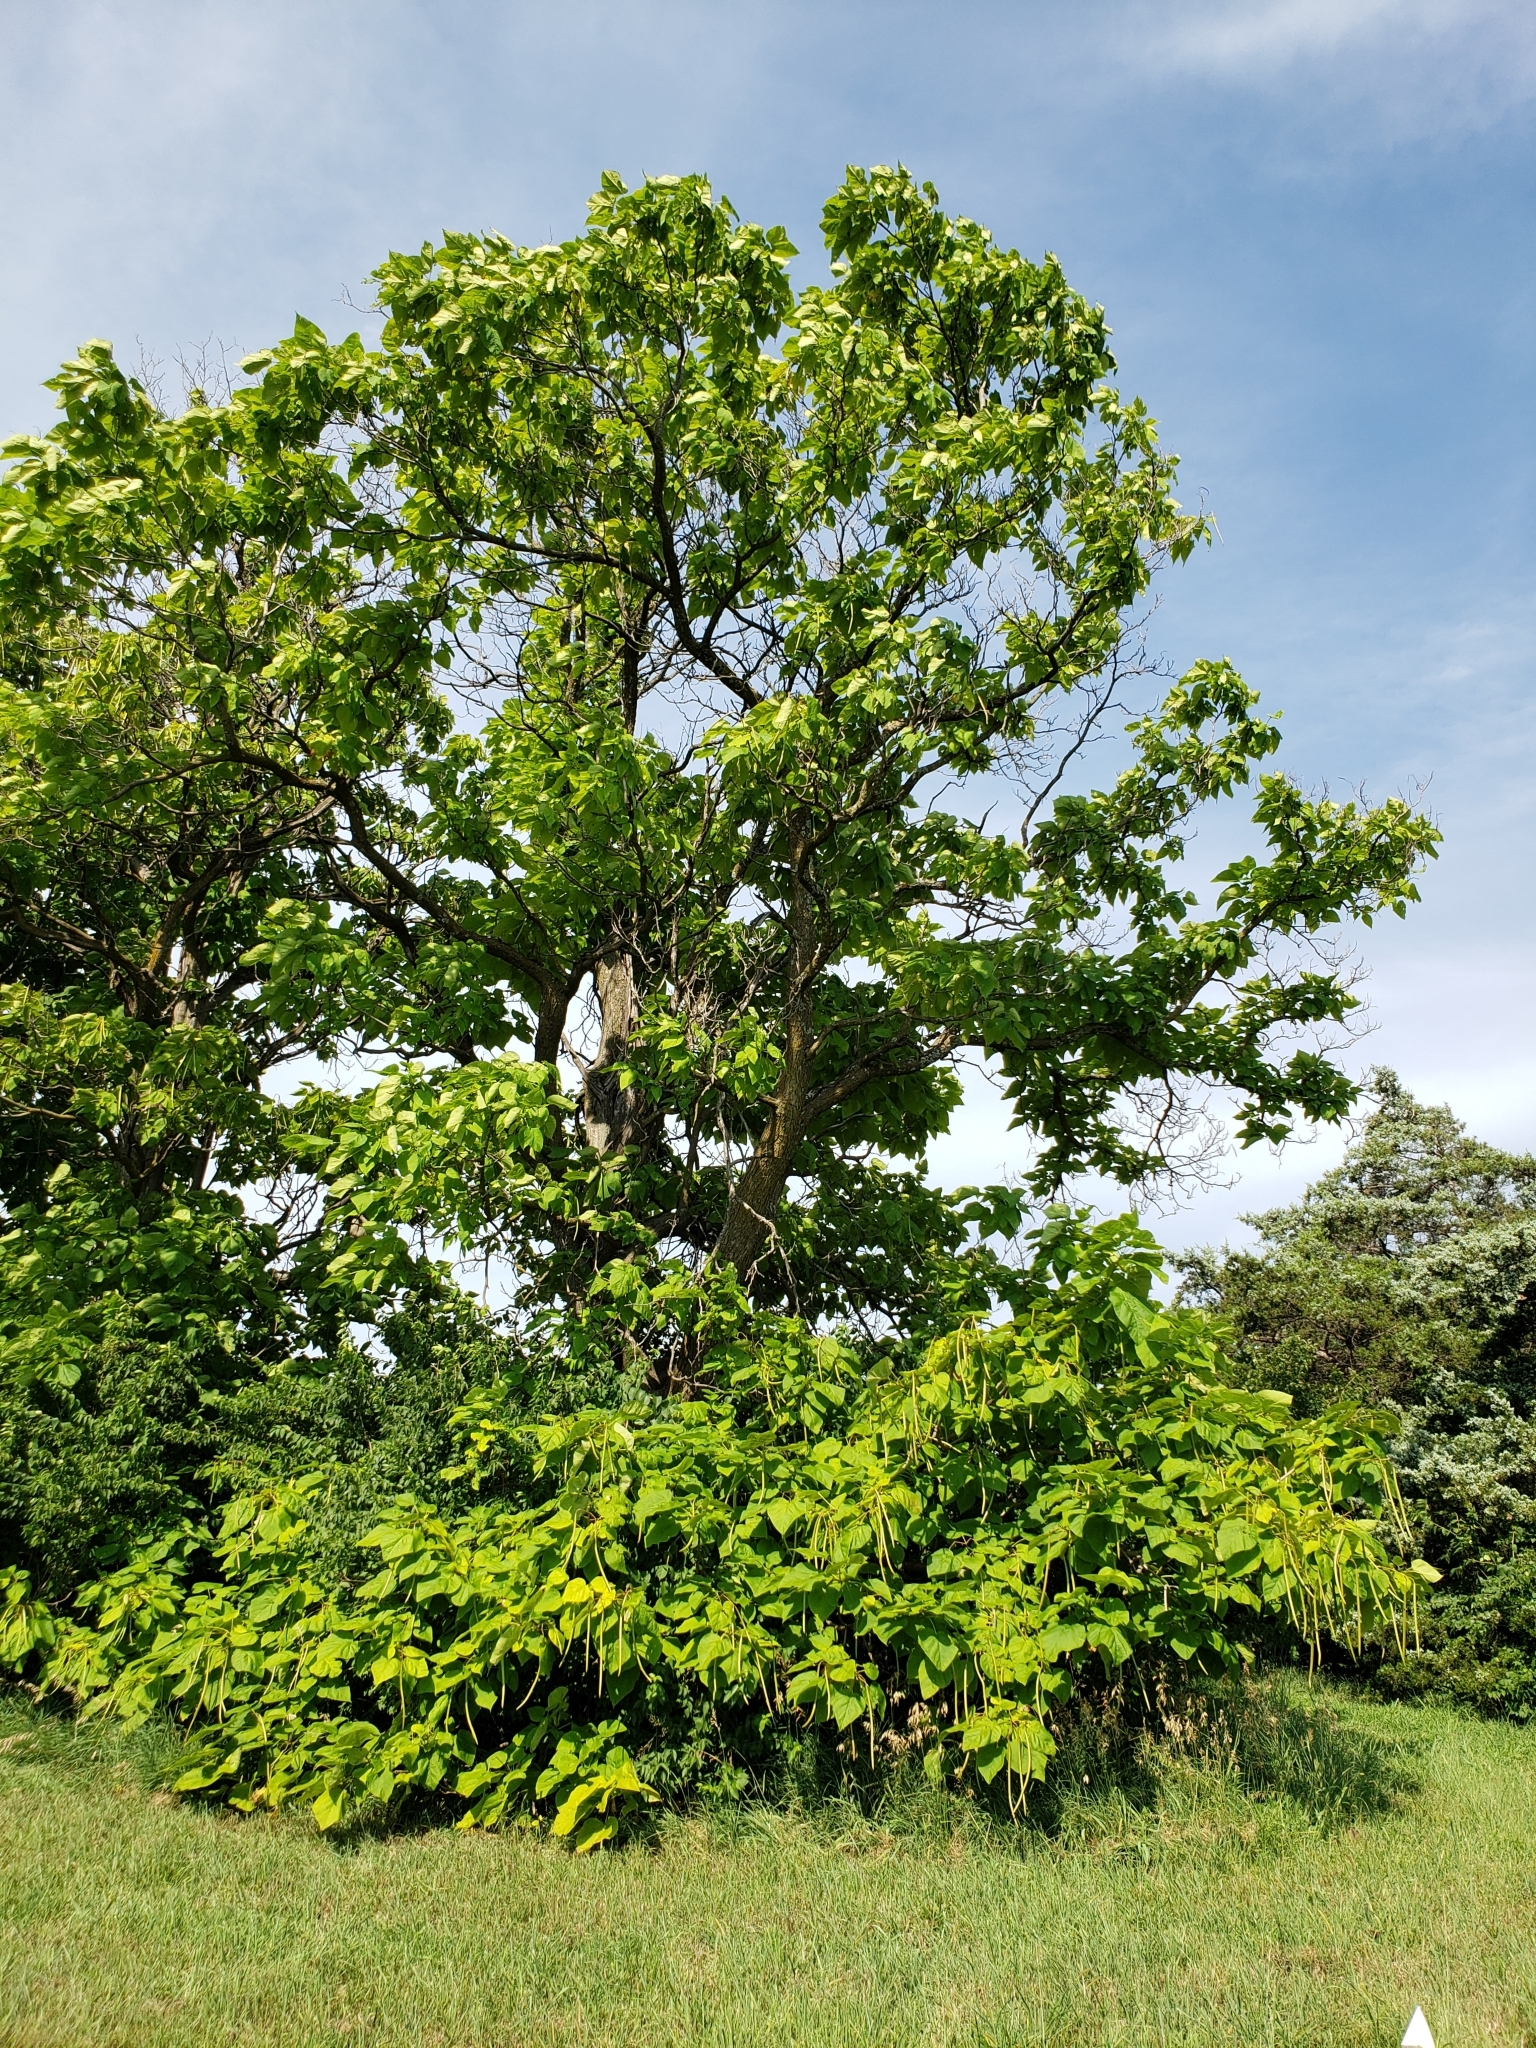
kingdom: Plantae
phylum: Tracheophyta
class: Magnoliopsida
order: Lamiales
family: Bignoniaceae
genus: Catalpa
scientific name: Catalpa speciosa
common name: Northern catalpa
